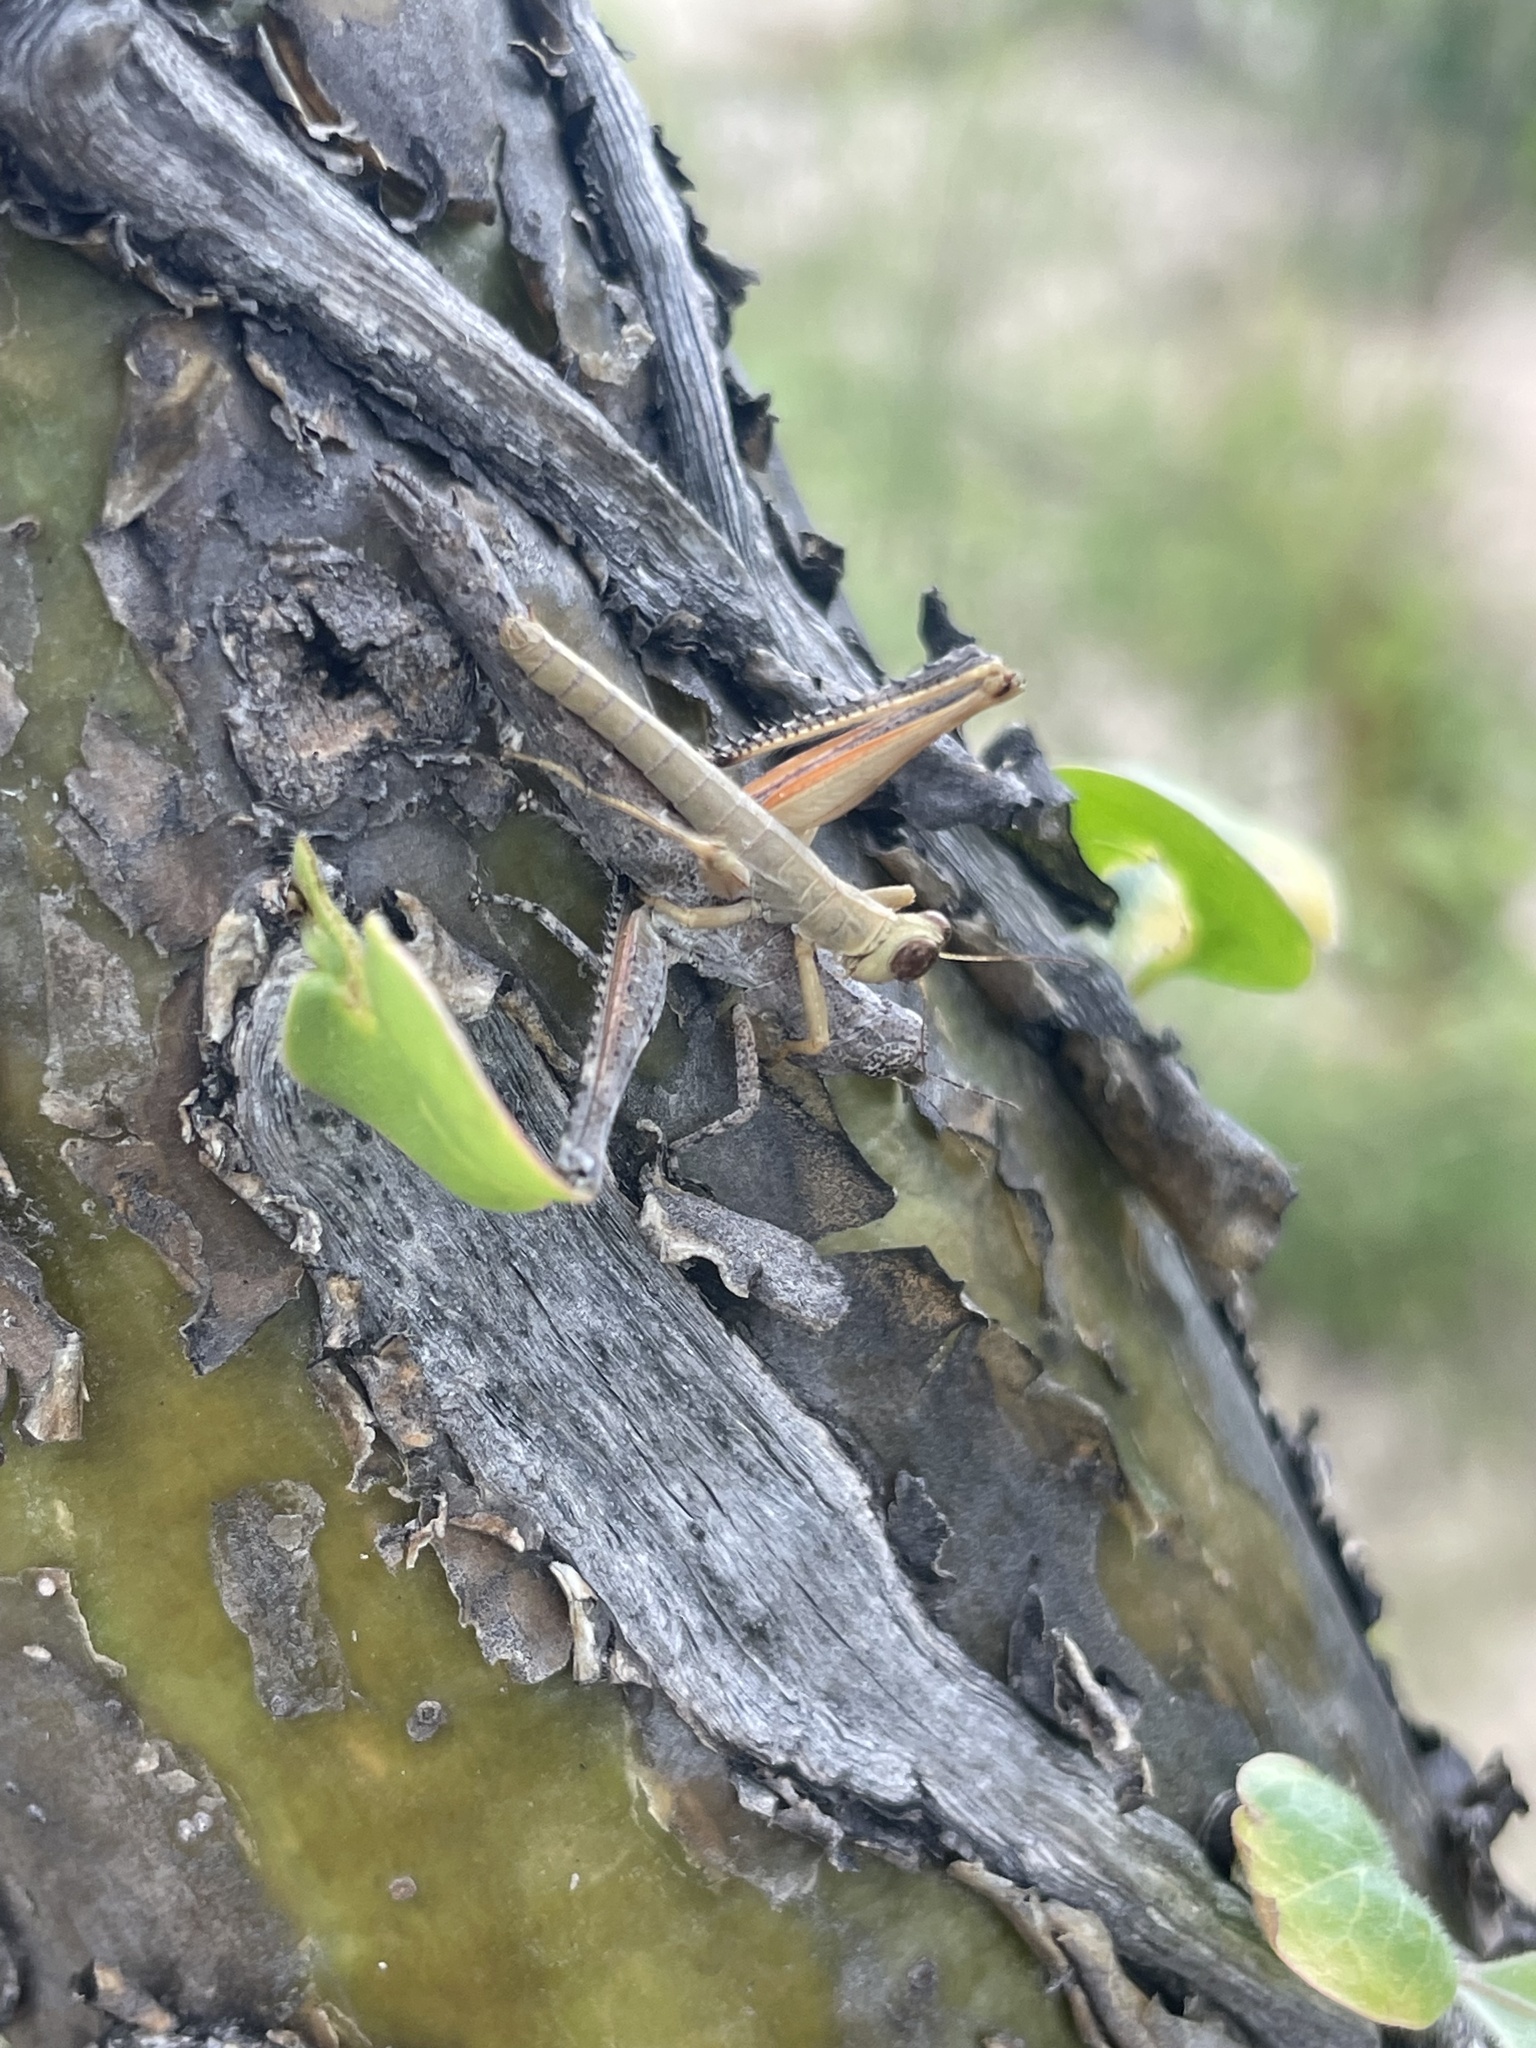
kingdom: Animalia
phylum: Arthropoda
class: Insecta
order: Orthoptera
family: Episactidae
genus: Teicophrys
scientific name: Teicophrys fusiformis
